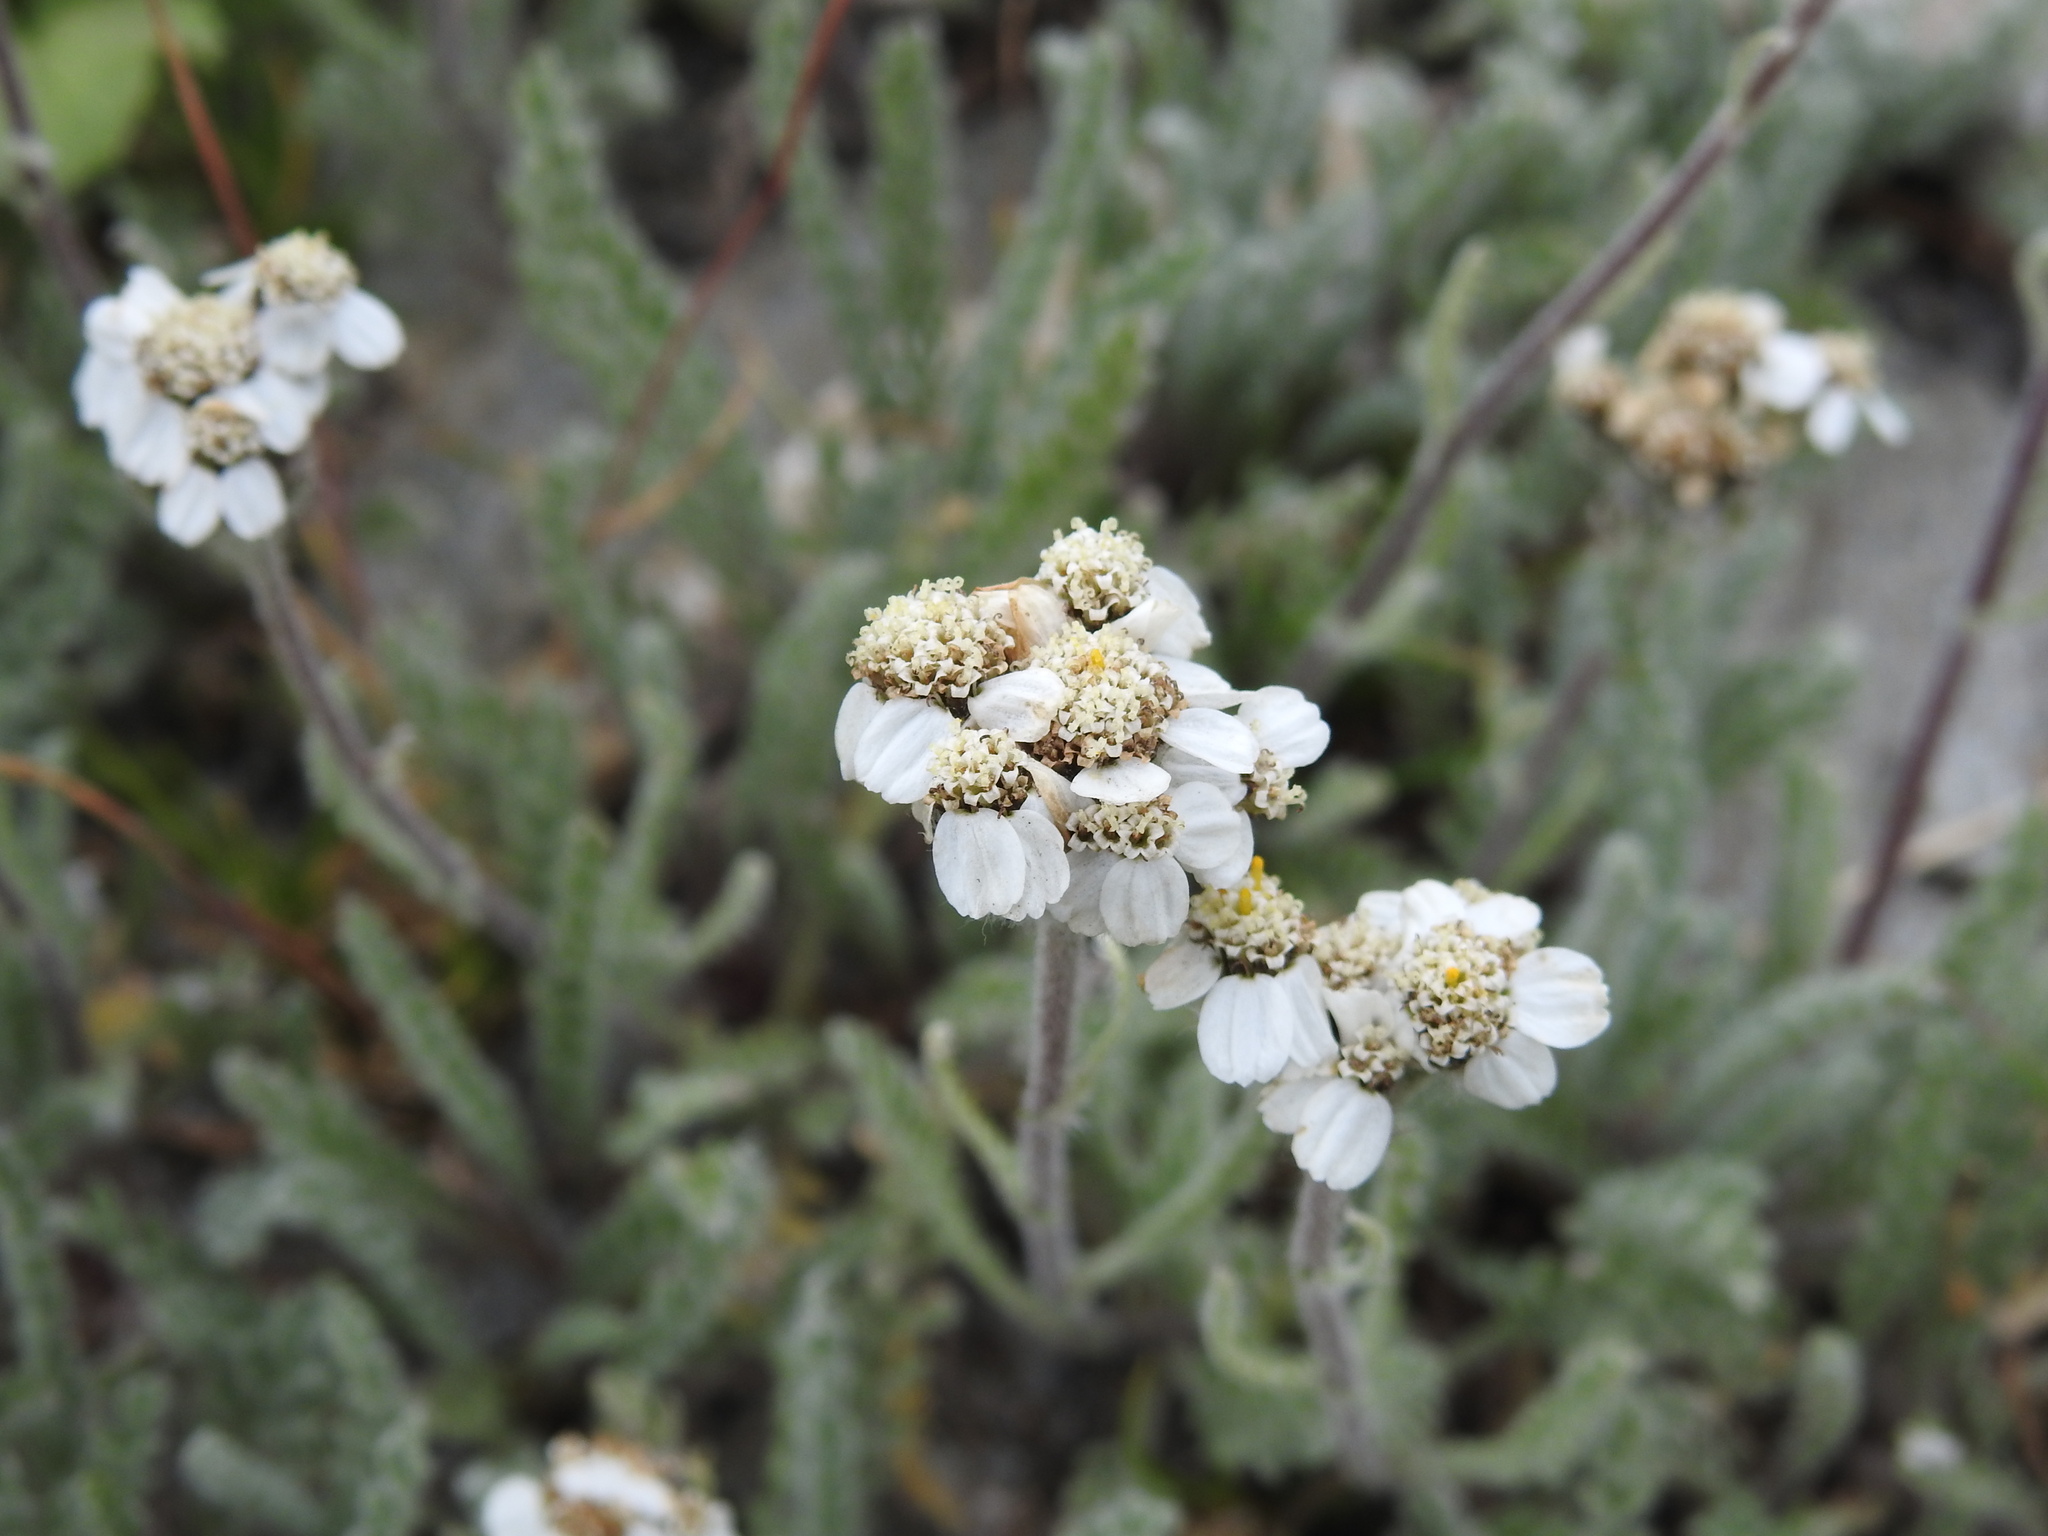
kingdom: Plantae
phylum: Tracheophyta
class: Magnoliopsida
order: Asterales
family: Asteraceae
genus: Achillea
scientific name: Achillea nana
